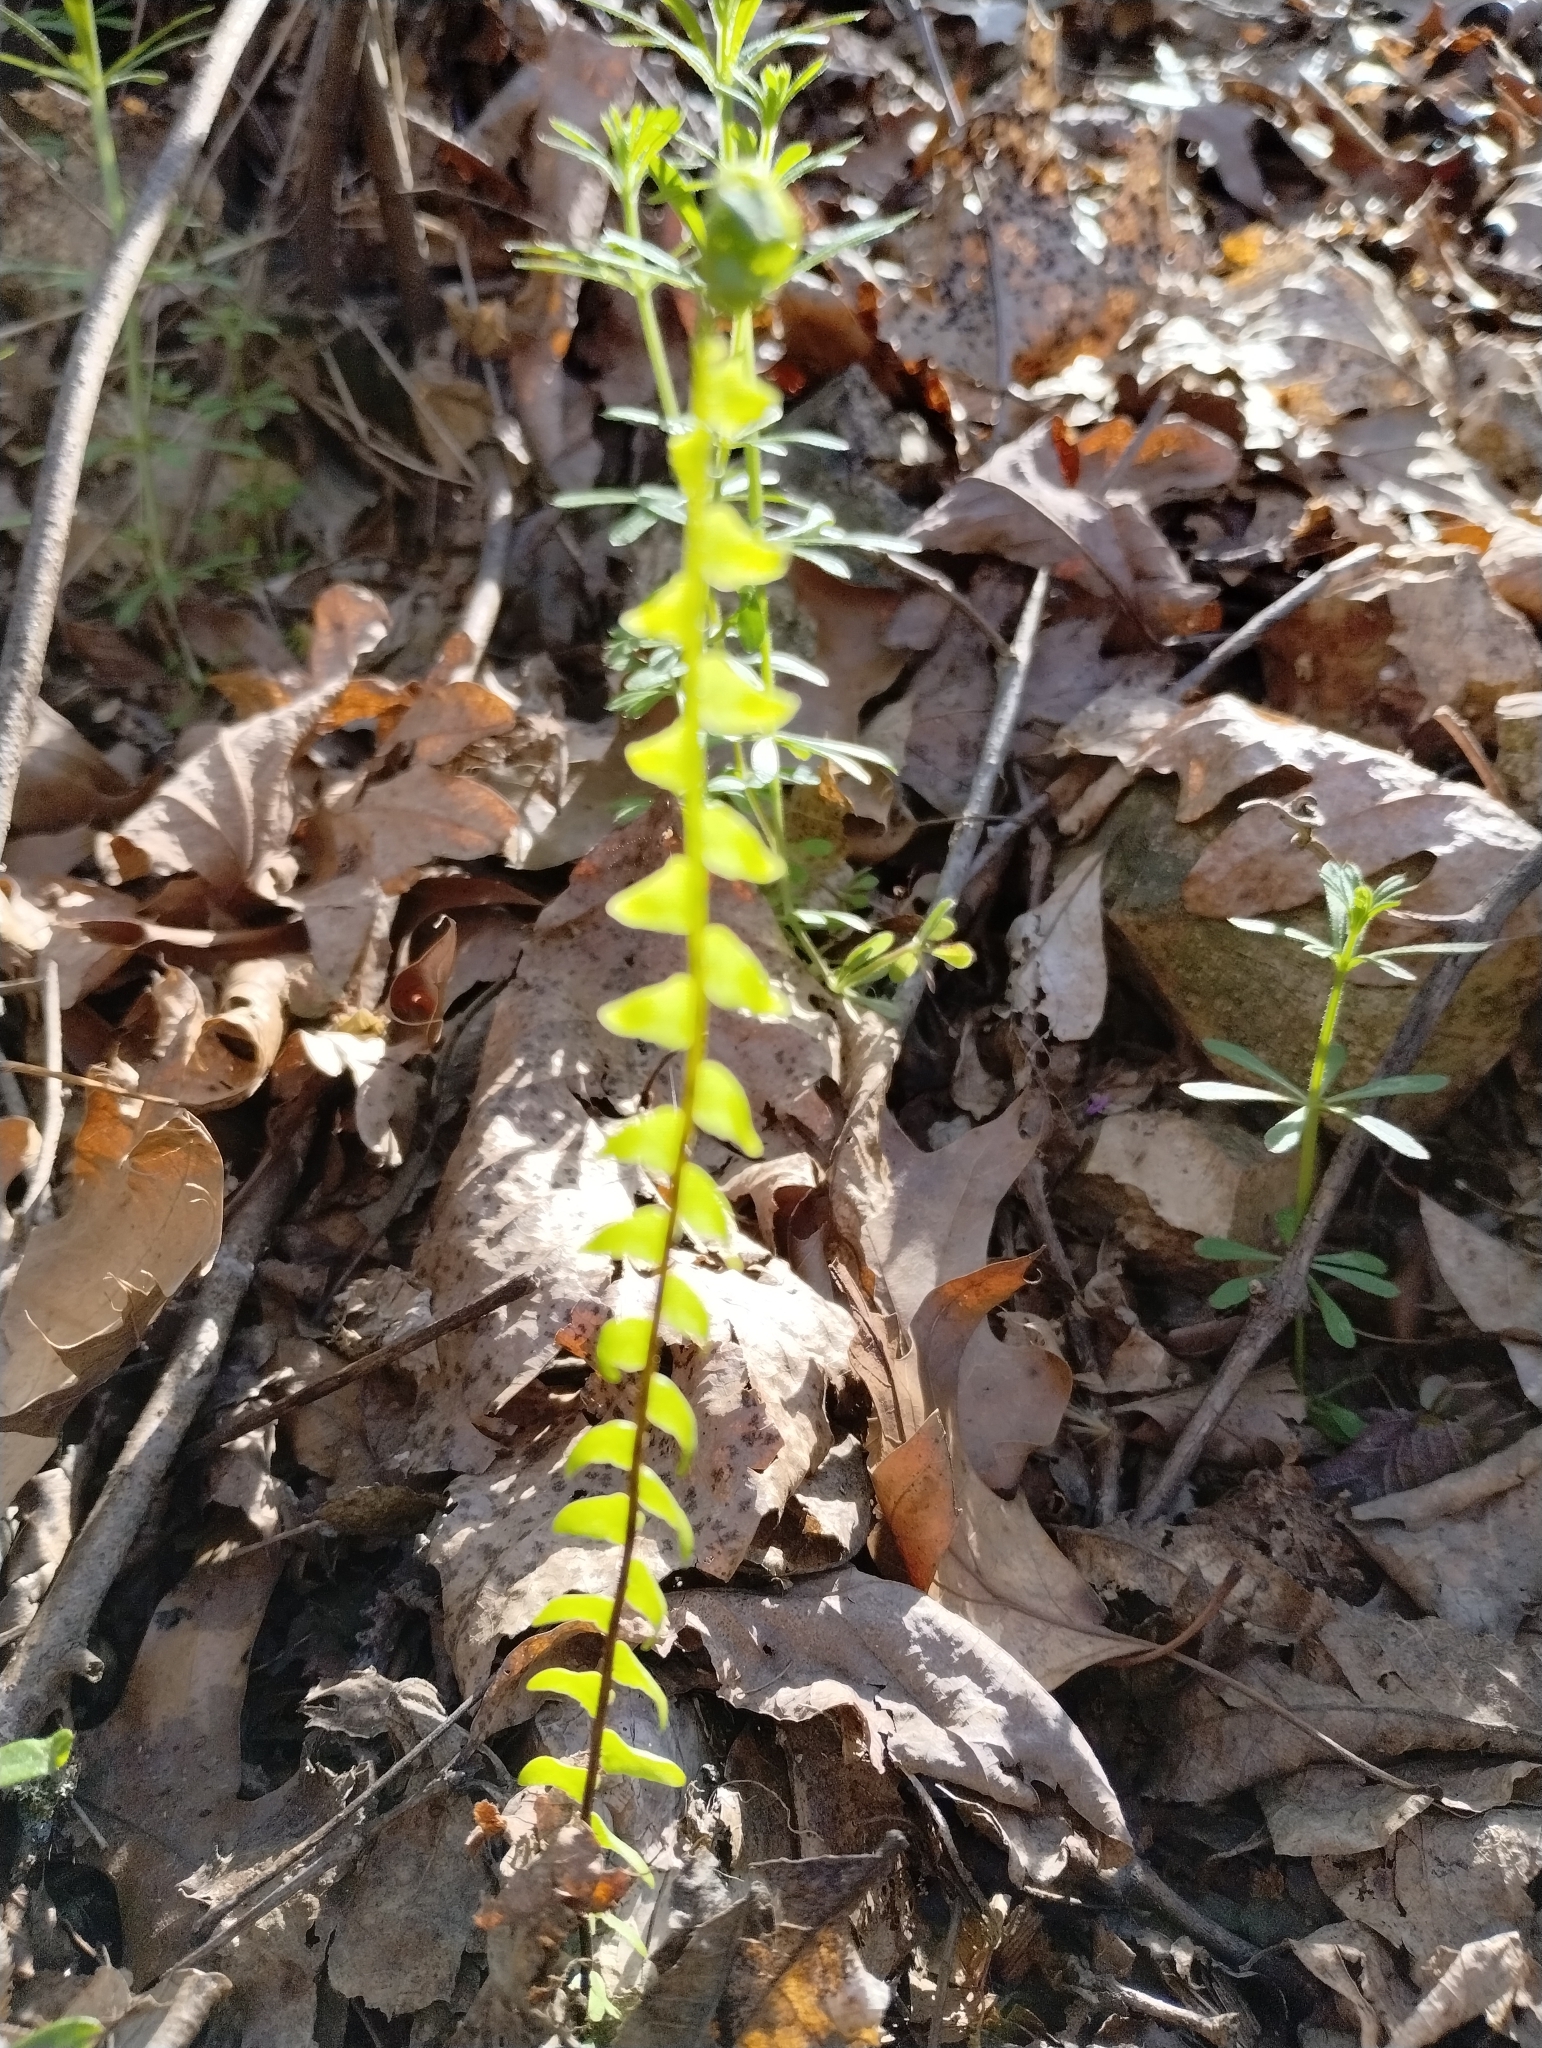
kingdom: Plantae
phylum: Tracheophyta
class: Polypodiopsida
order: Polypodiales
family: Aspleniaceae
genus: Asplenium
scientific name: Asplenium platyneuron
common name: Ebony spleenwort
